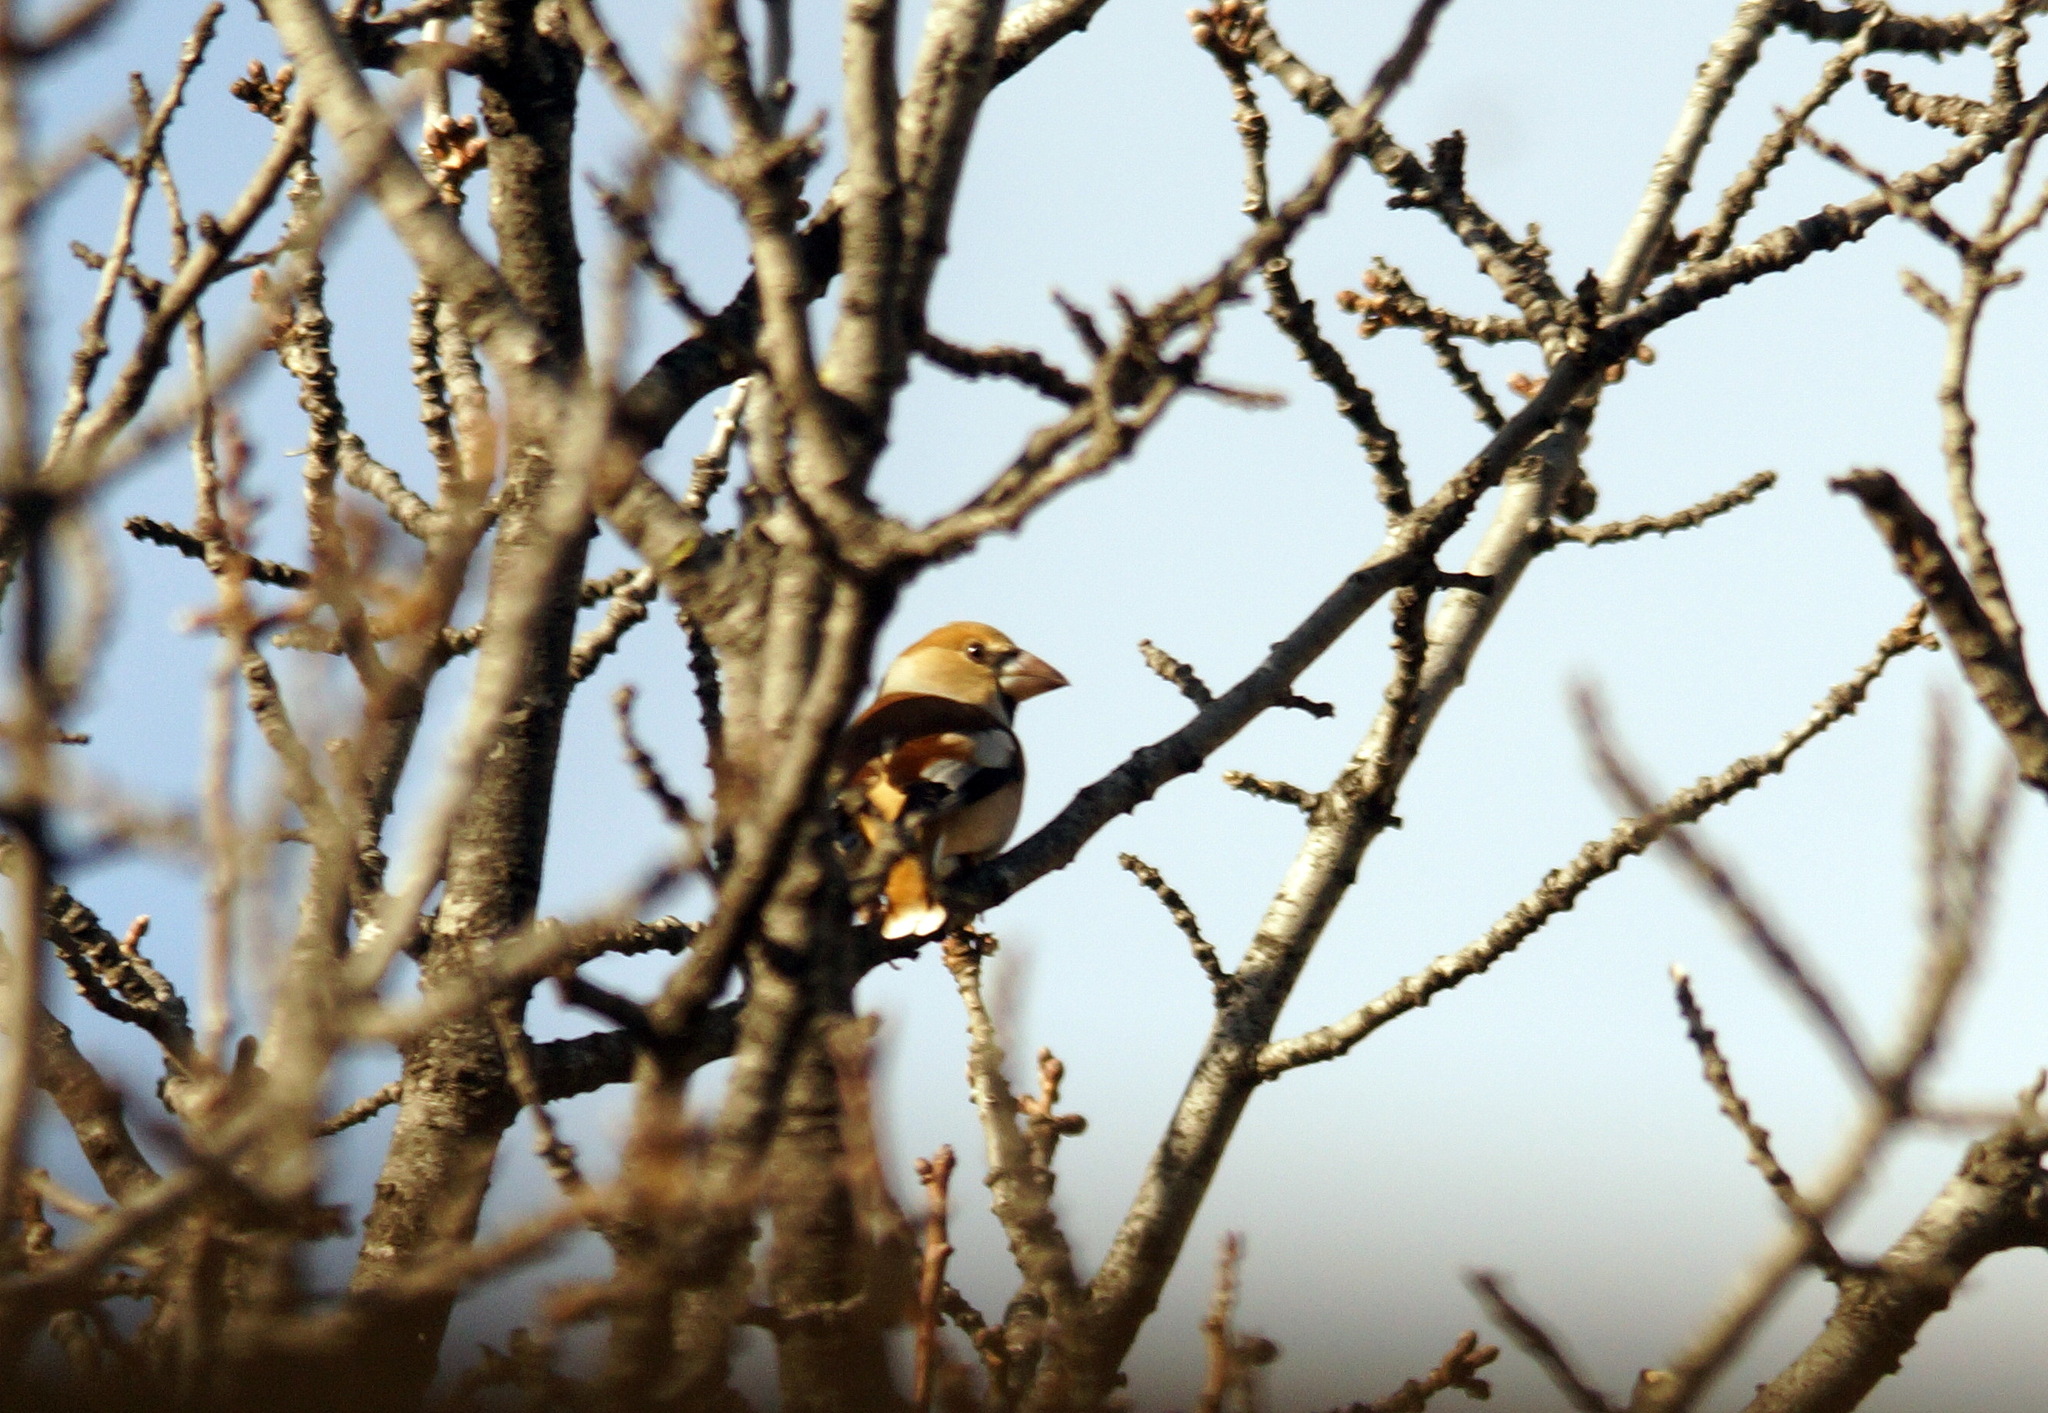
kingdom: Animalia
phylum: Chordata
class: Aves
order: Passeriformes
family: Fringillidae
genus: Coccothraustes
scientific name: Coccothraustes coccothraustes
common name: Hawfinch
